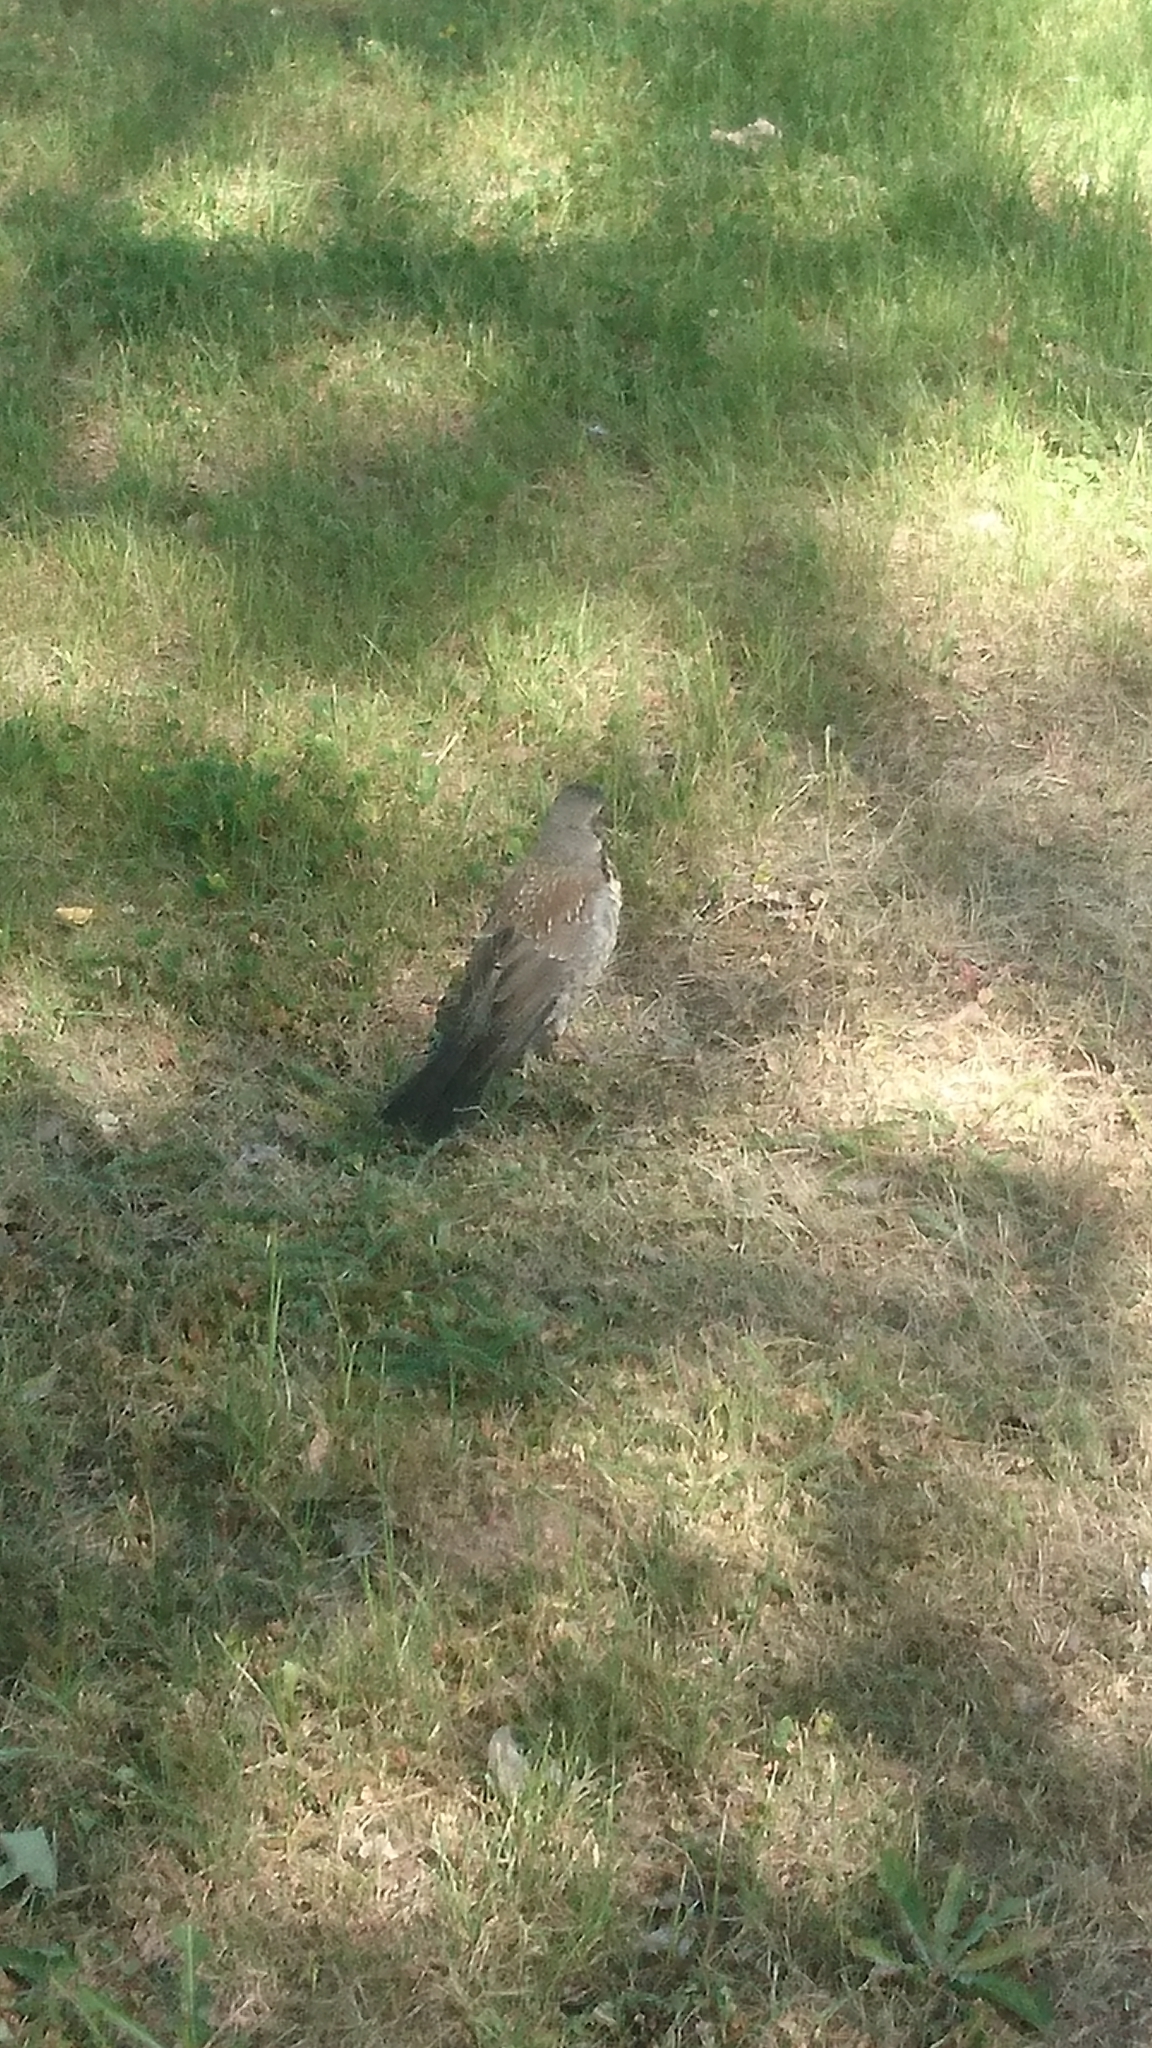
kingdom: Animalia
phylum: Chordata
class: Aves
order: Passeriformes
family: Turdidae
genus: Turdus
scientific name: Turdus pilaris
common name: Fieldfare
